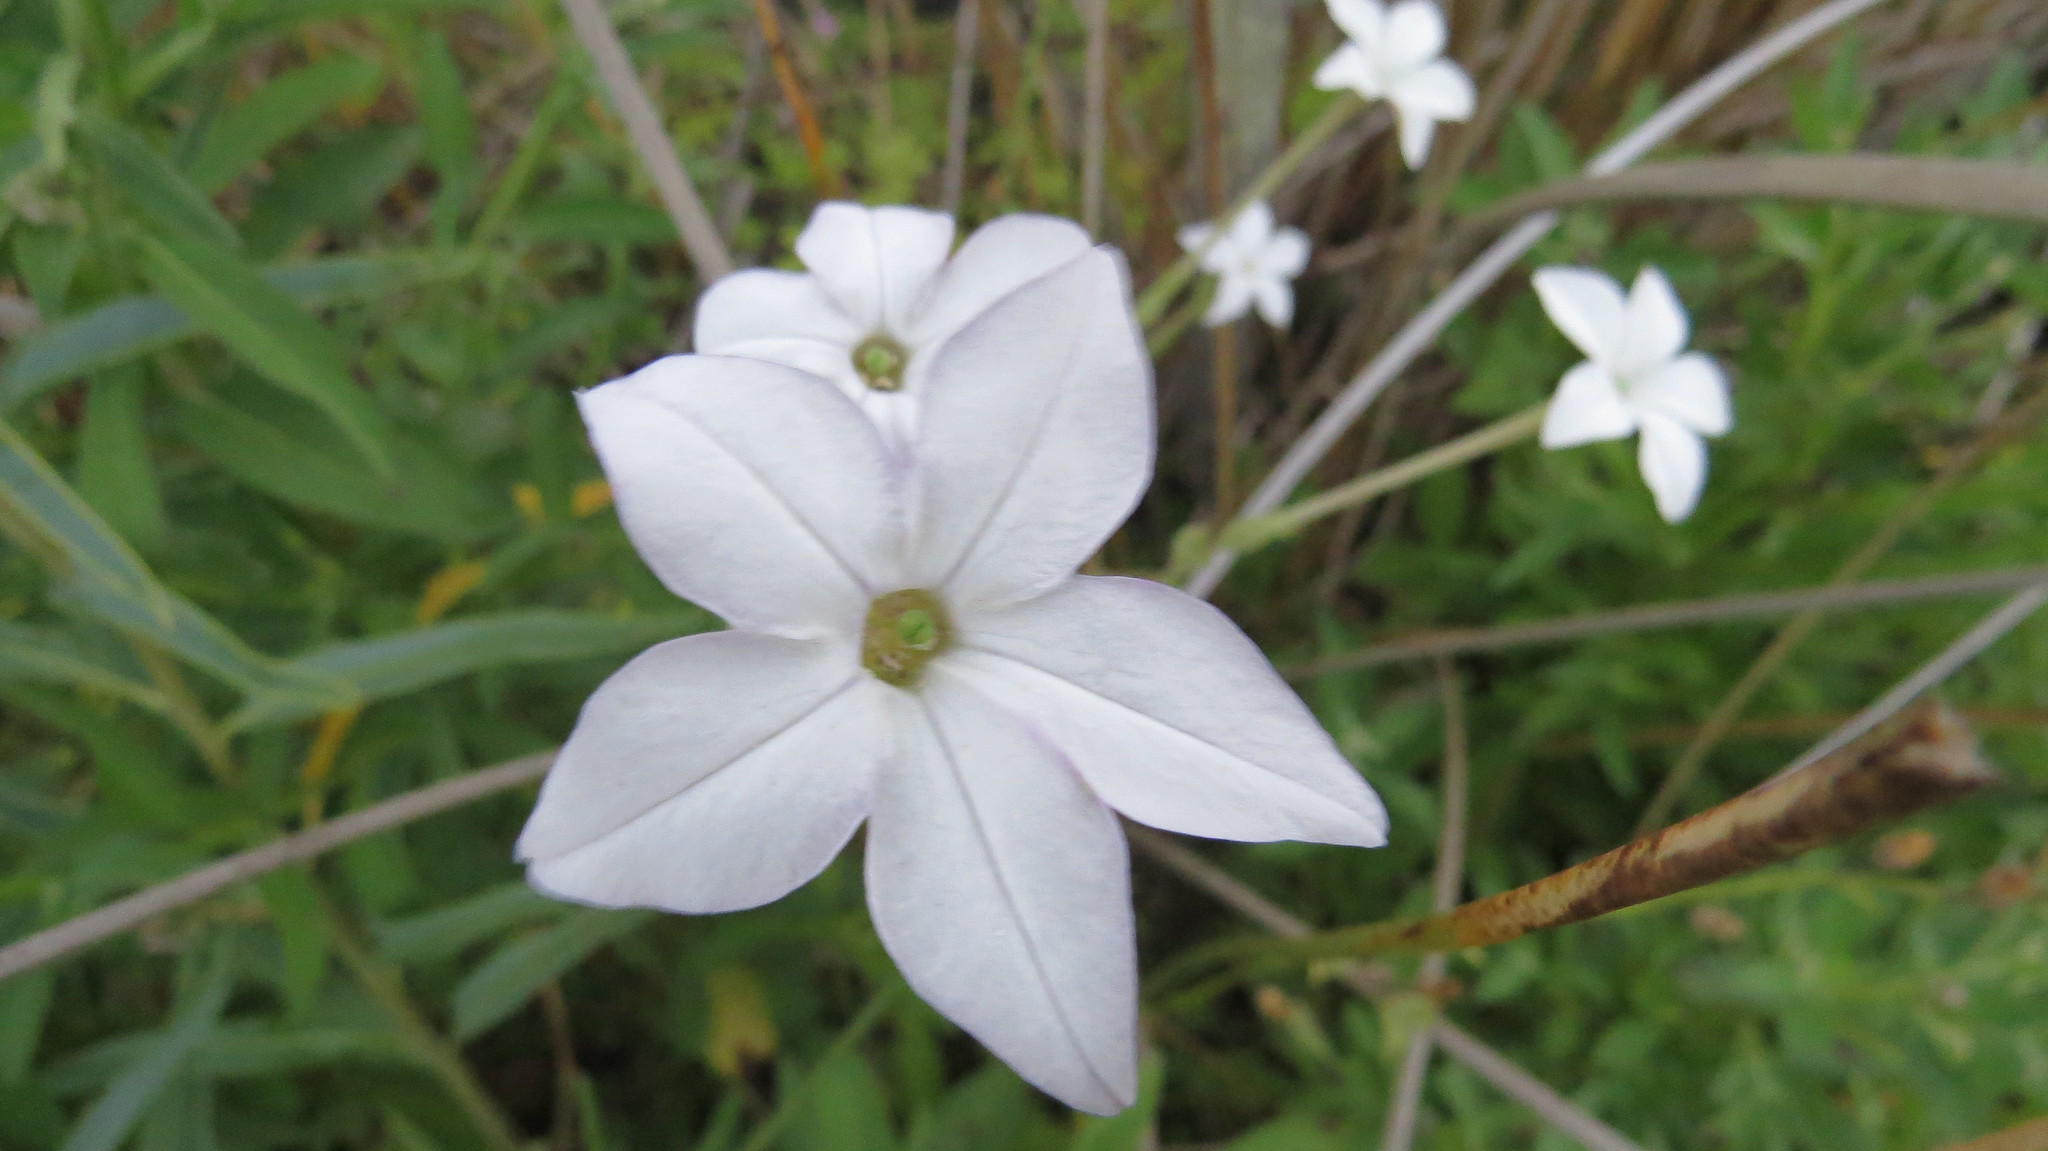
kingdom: Plantae
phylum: Tracheophyta
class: Magnoliopsida
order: Solanales
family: Solanaceae
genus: Nicotiana
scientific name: Nicotiana longiflora
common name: Long-flowered tobacco
